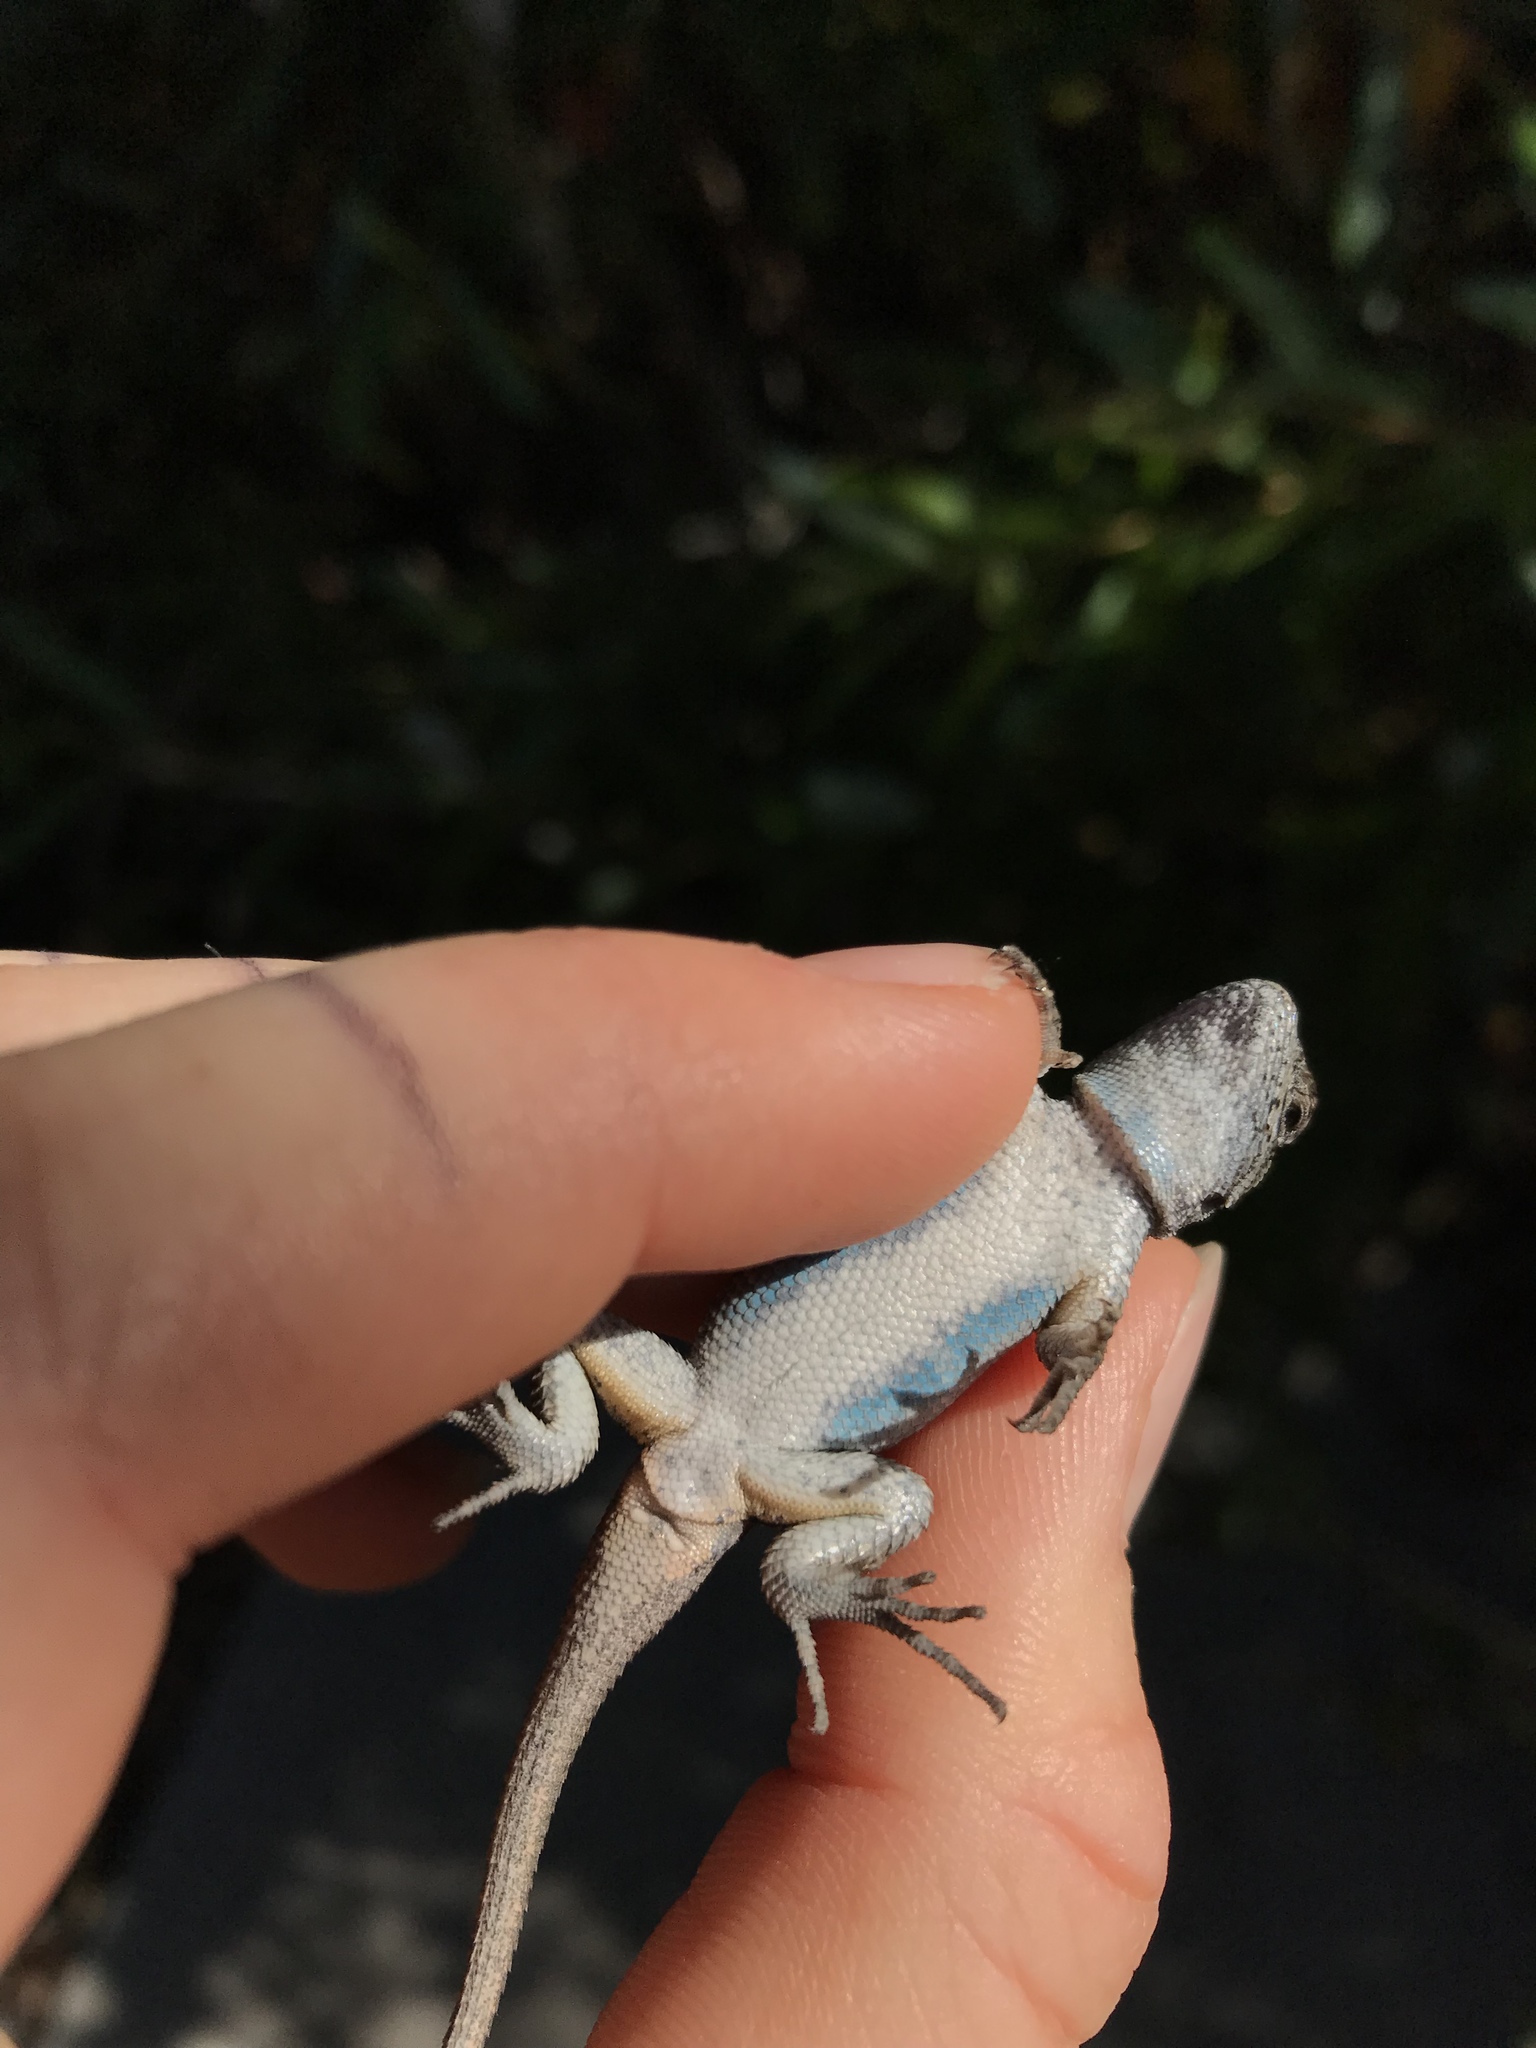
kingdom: Animalia
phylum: Chordata
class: Squamata
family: Phrynosomatidae
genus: Sceloporus
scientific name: Sceloporus occidentalis
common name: Western fence lizard
